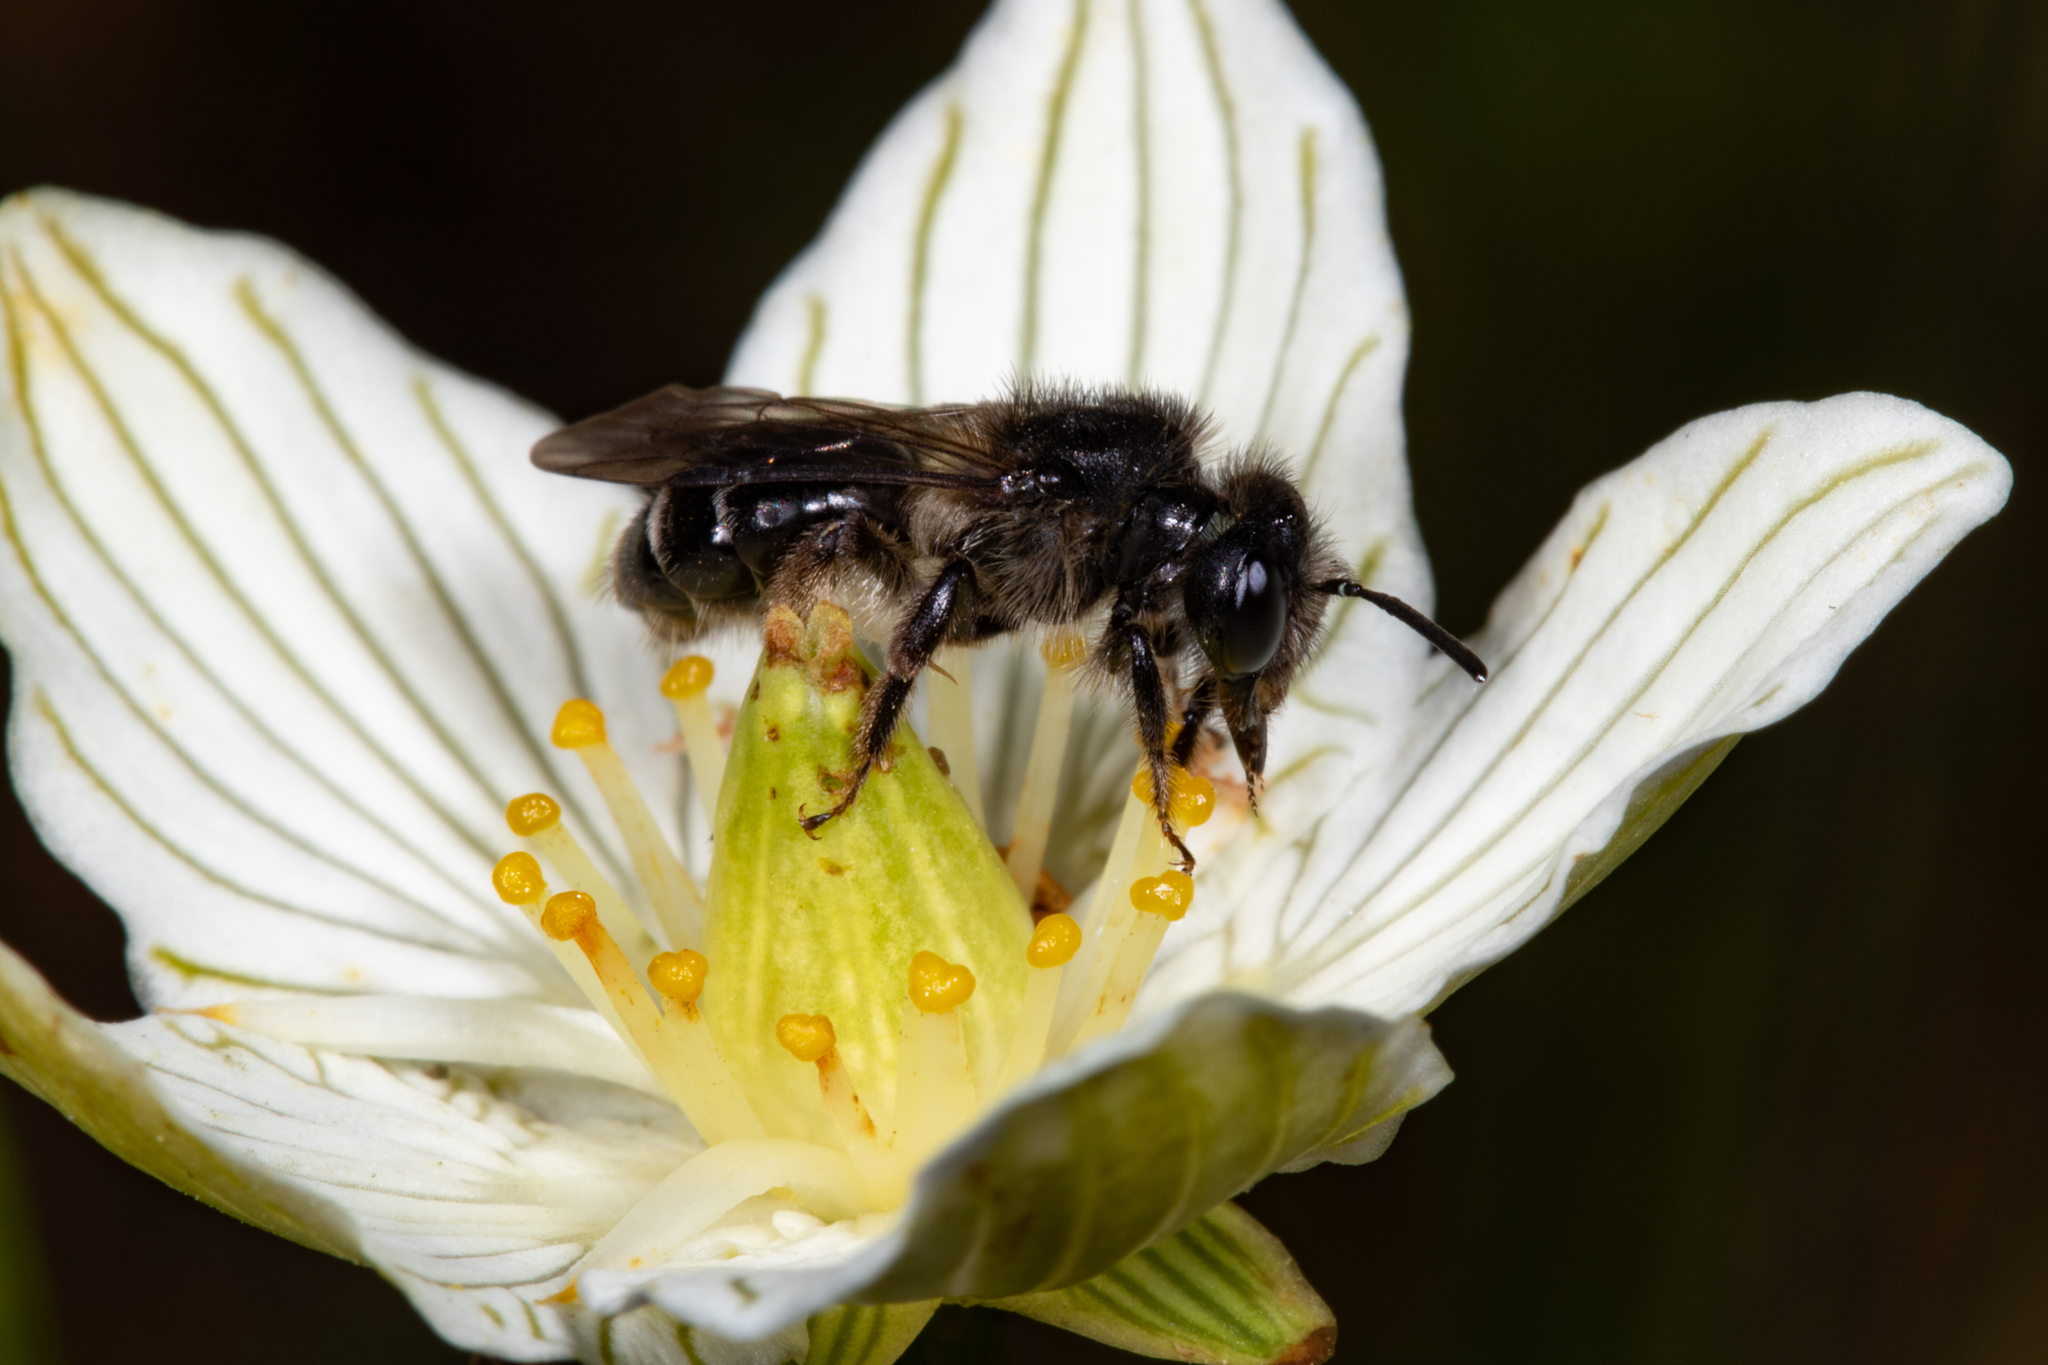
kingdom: Animalia
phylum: Arthropoda
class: Insecta
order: Hymenoptera
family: Andrenidae
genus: Andrena
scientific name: Andrena parnassiae
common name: Parnassia miner
